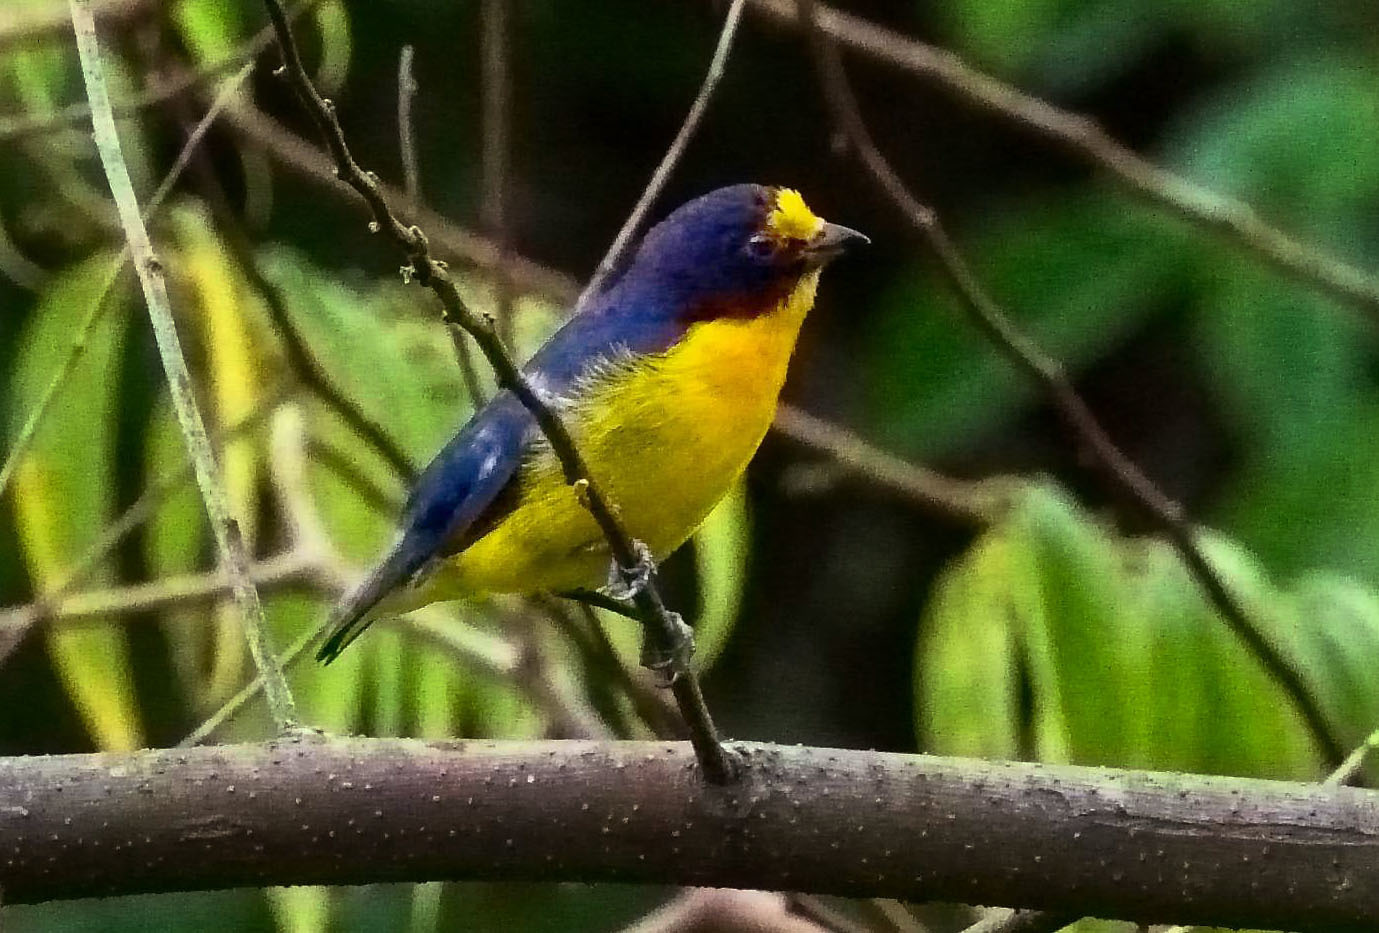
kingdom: Animalia
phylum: Chordata
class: Aves
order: Passeriformes
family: Fringillidae
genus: Euphonia
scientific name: Euphonia violacea
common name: Violaceous euphonia
